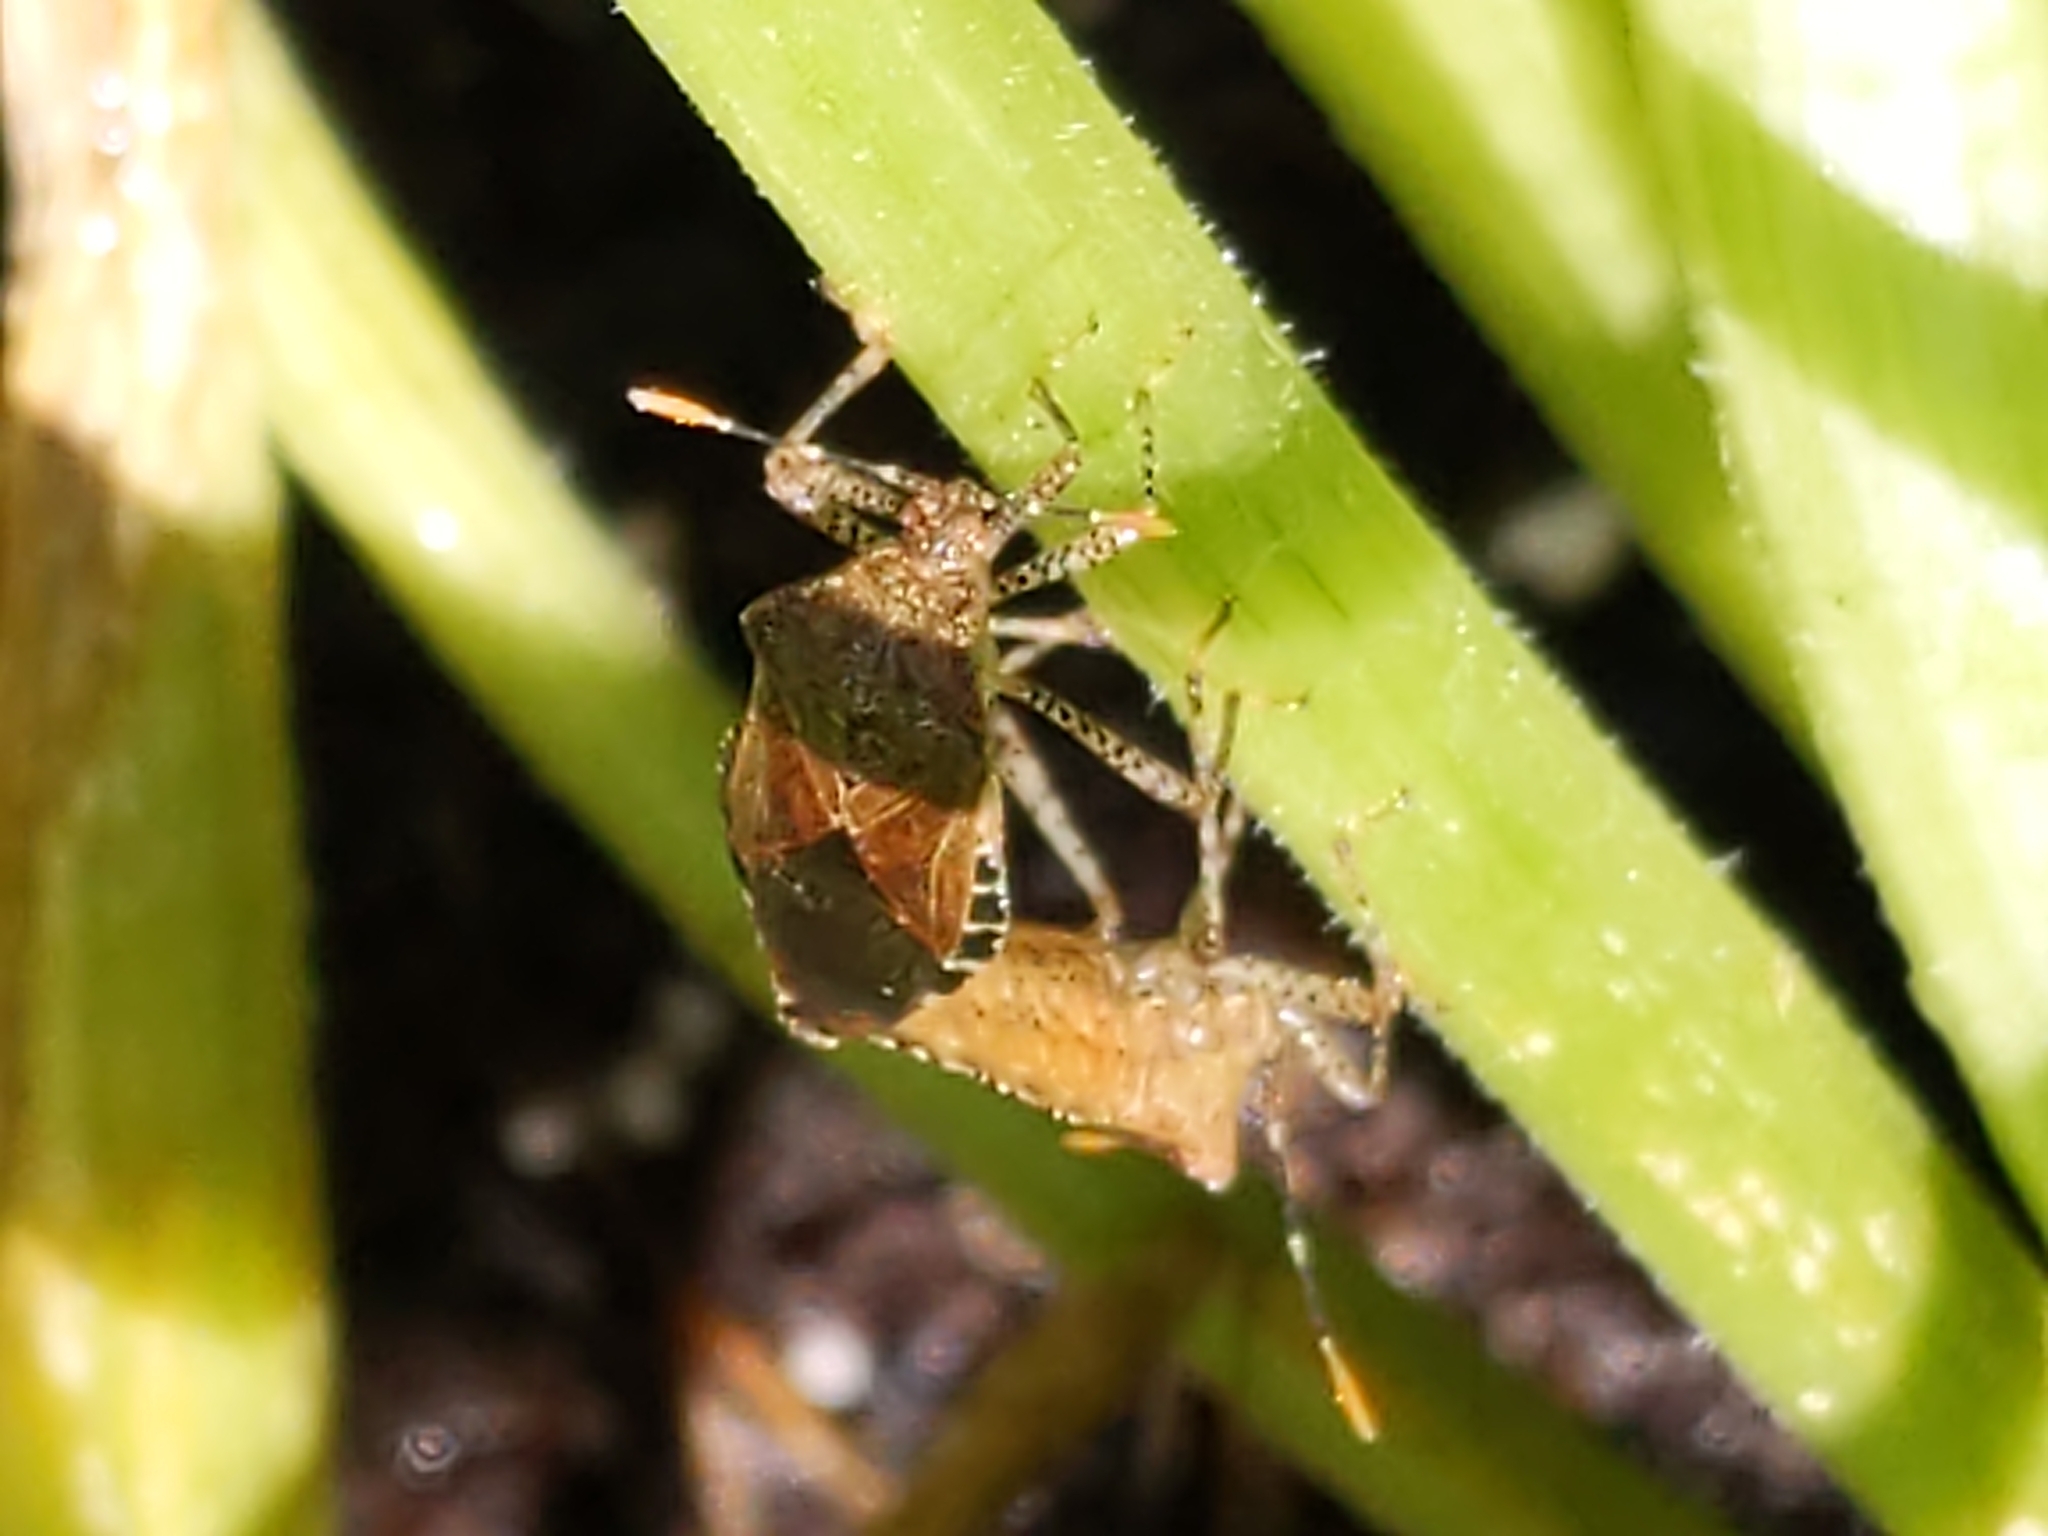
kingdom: Animalia
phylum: Arthropoda
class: Insecta
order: Hemiptera
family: Coreidae
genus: Anasa
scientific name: Anasa armigera
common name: Horned squash bug
